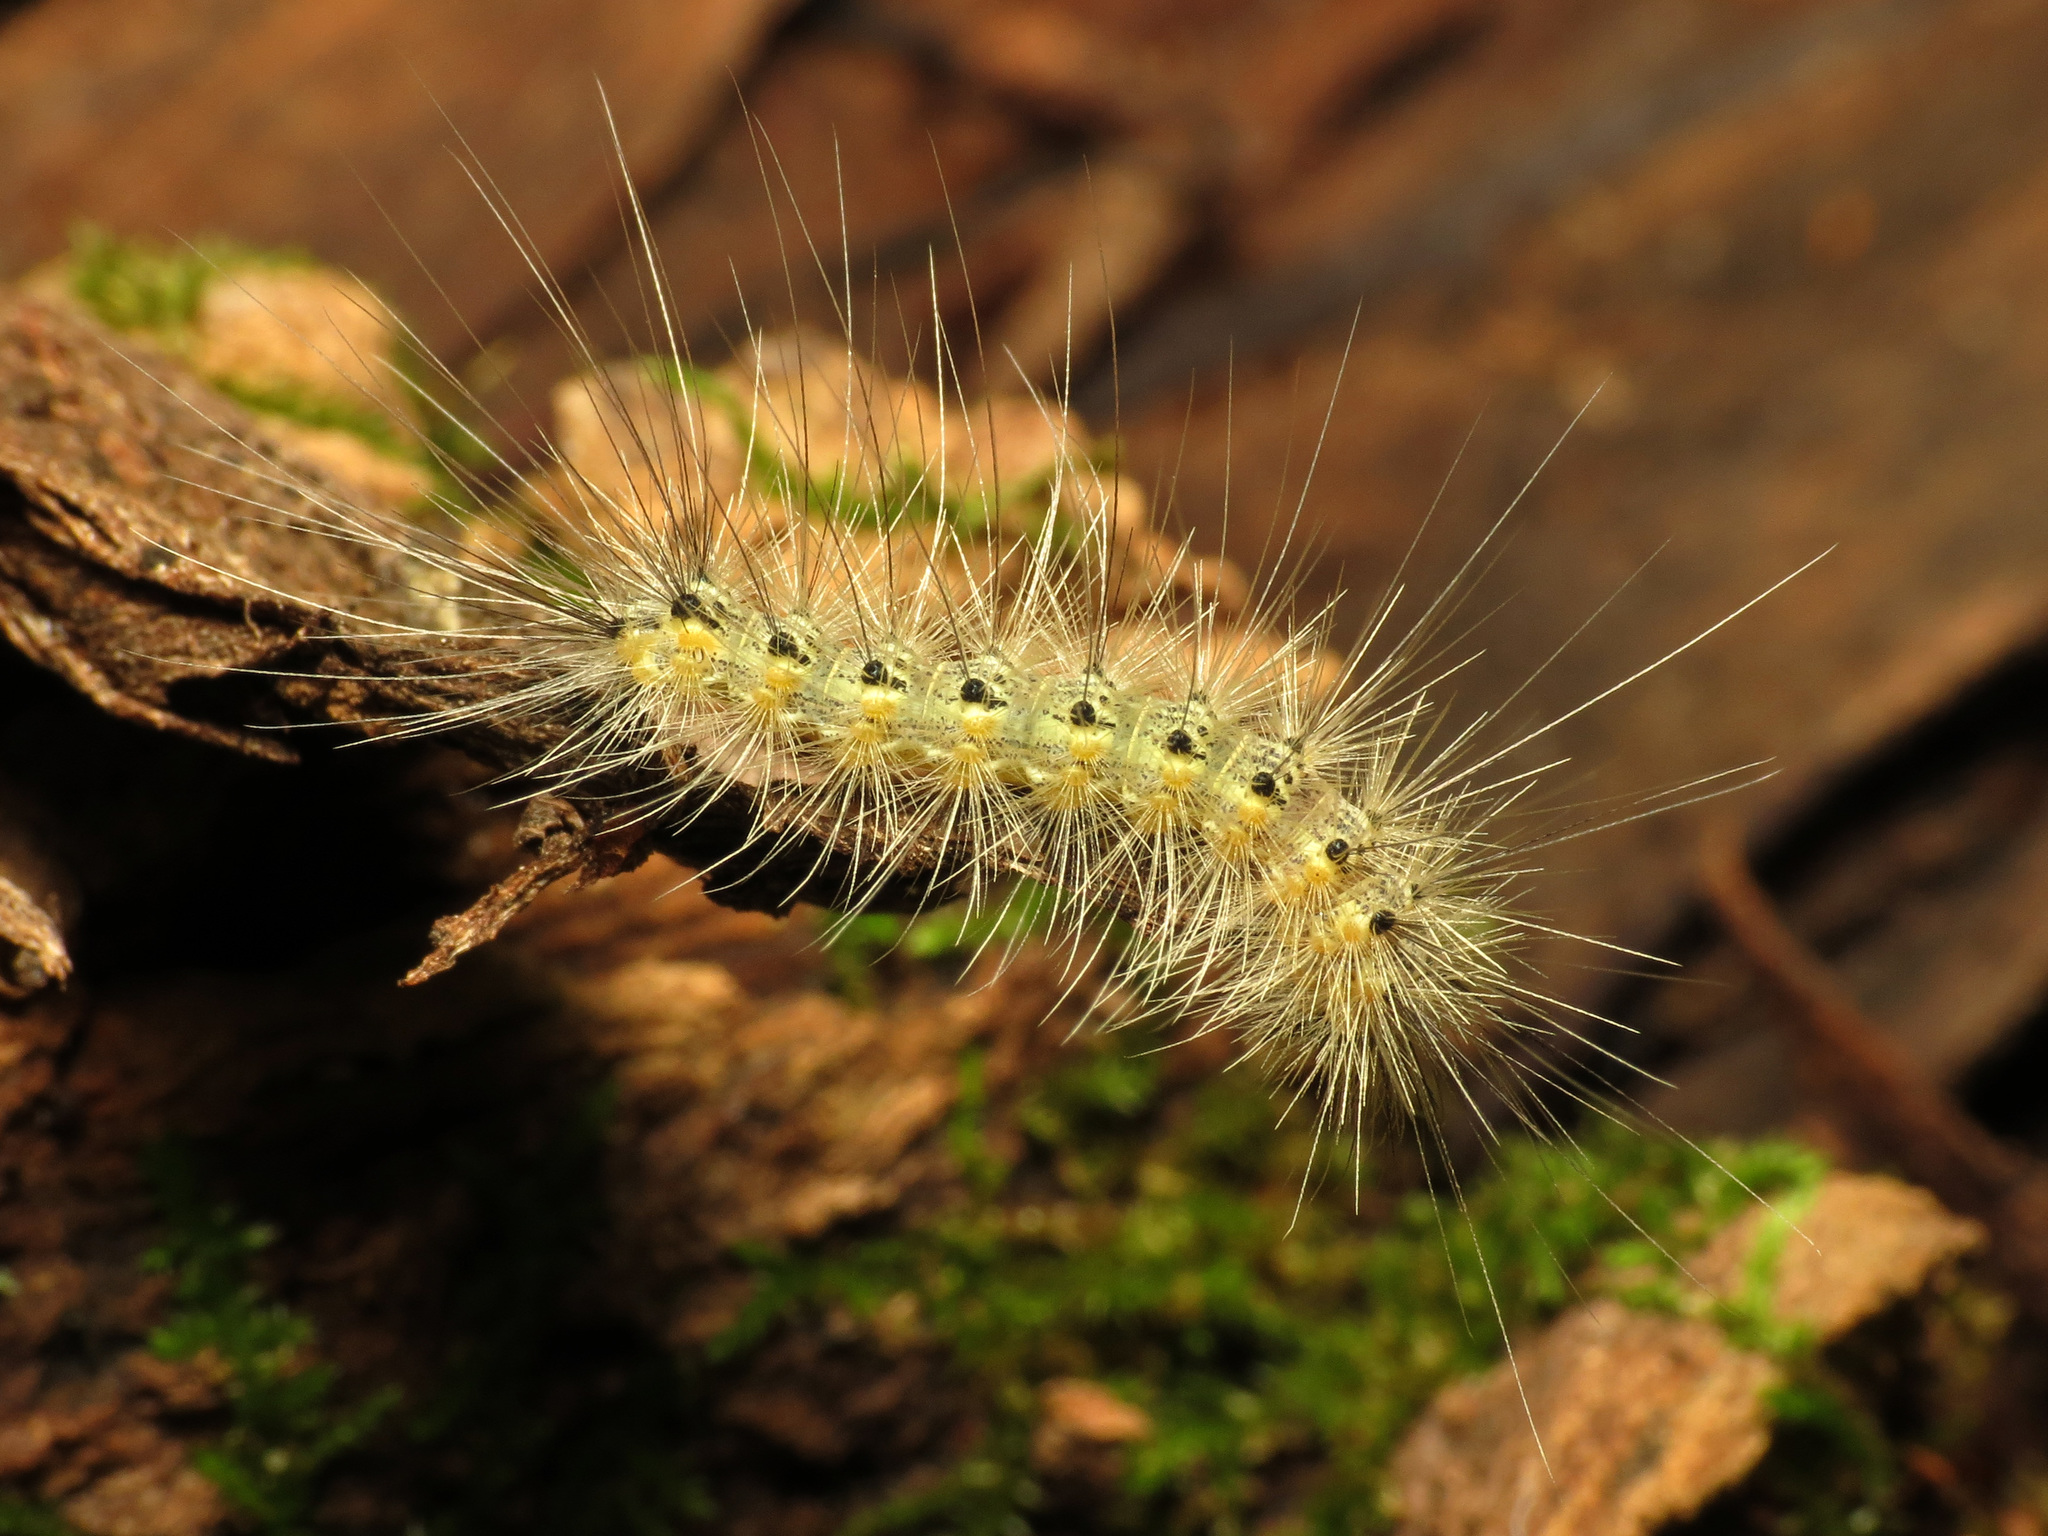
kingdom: Animalia
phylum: Arthropoda
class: Insecta
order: Lepidoptera
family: Erebidae
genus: Hyphantria
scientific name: Hyphantria cunea
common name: American white moth
